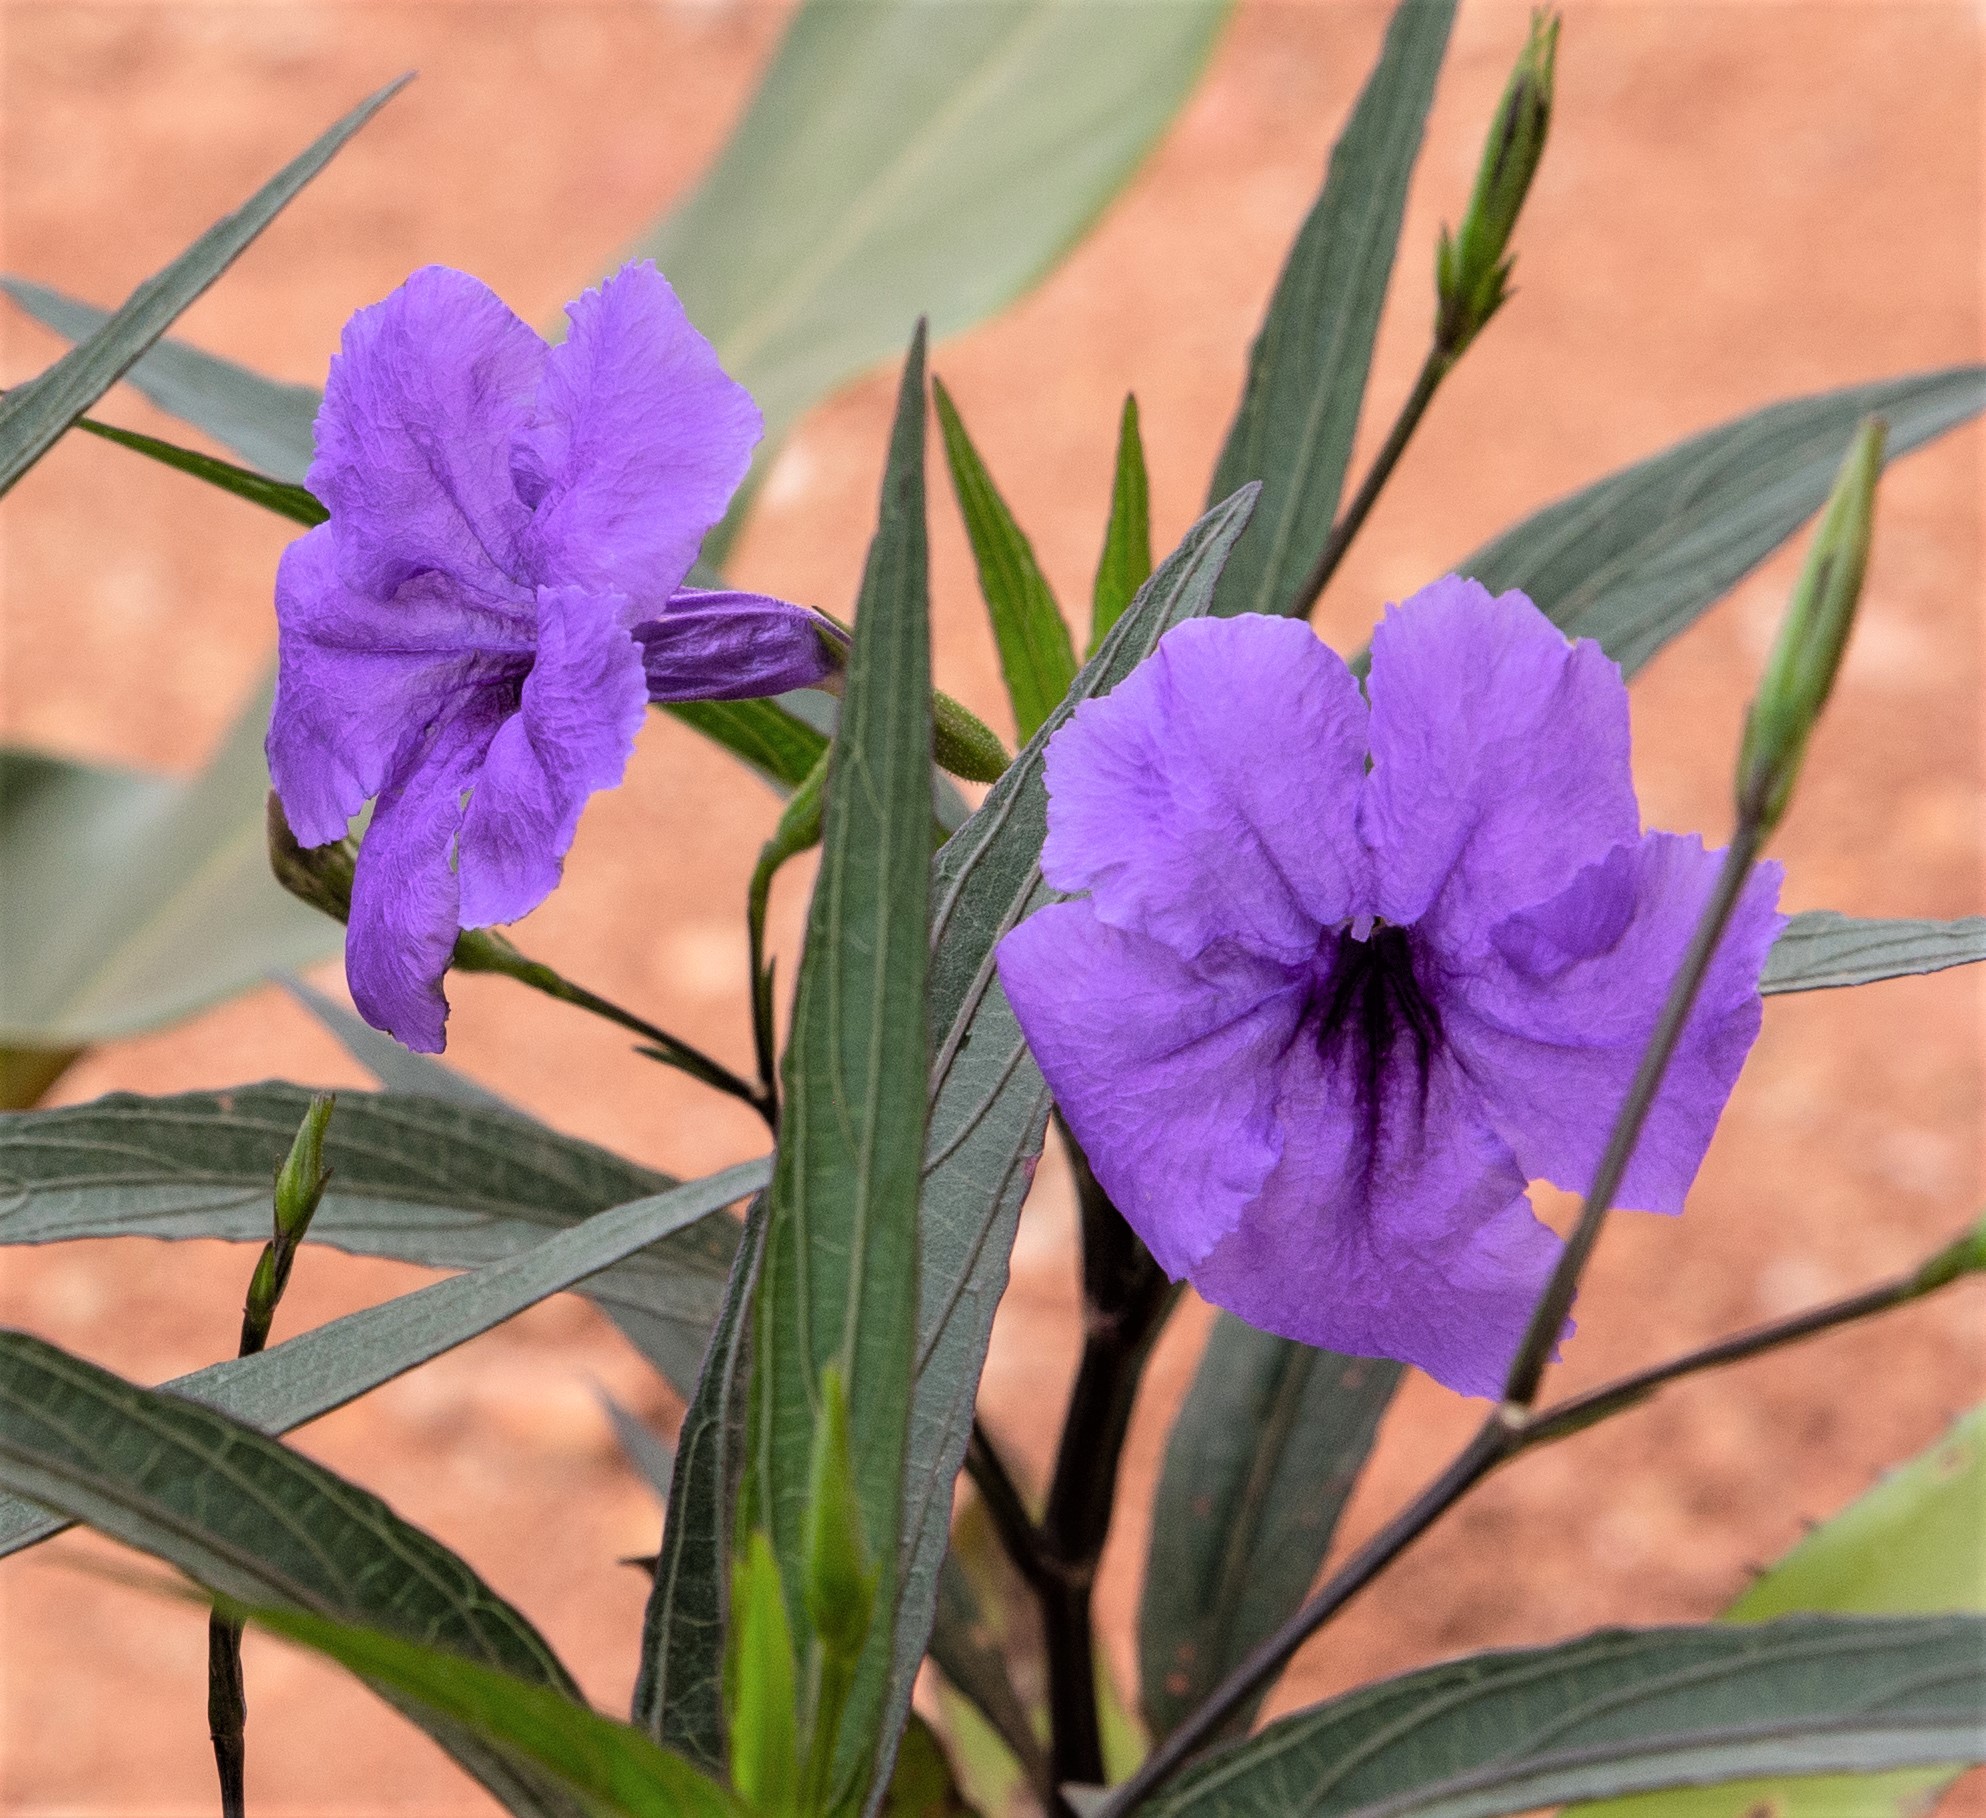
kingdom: Plantae
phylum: Tracheophyta
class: Magnoliopsida
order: Lamiales
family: Acanthaceae
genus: Ruellia
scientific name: Ruellia simplex
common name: Softseed wild petunia
